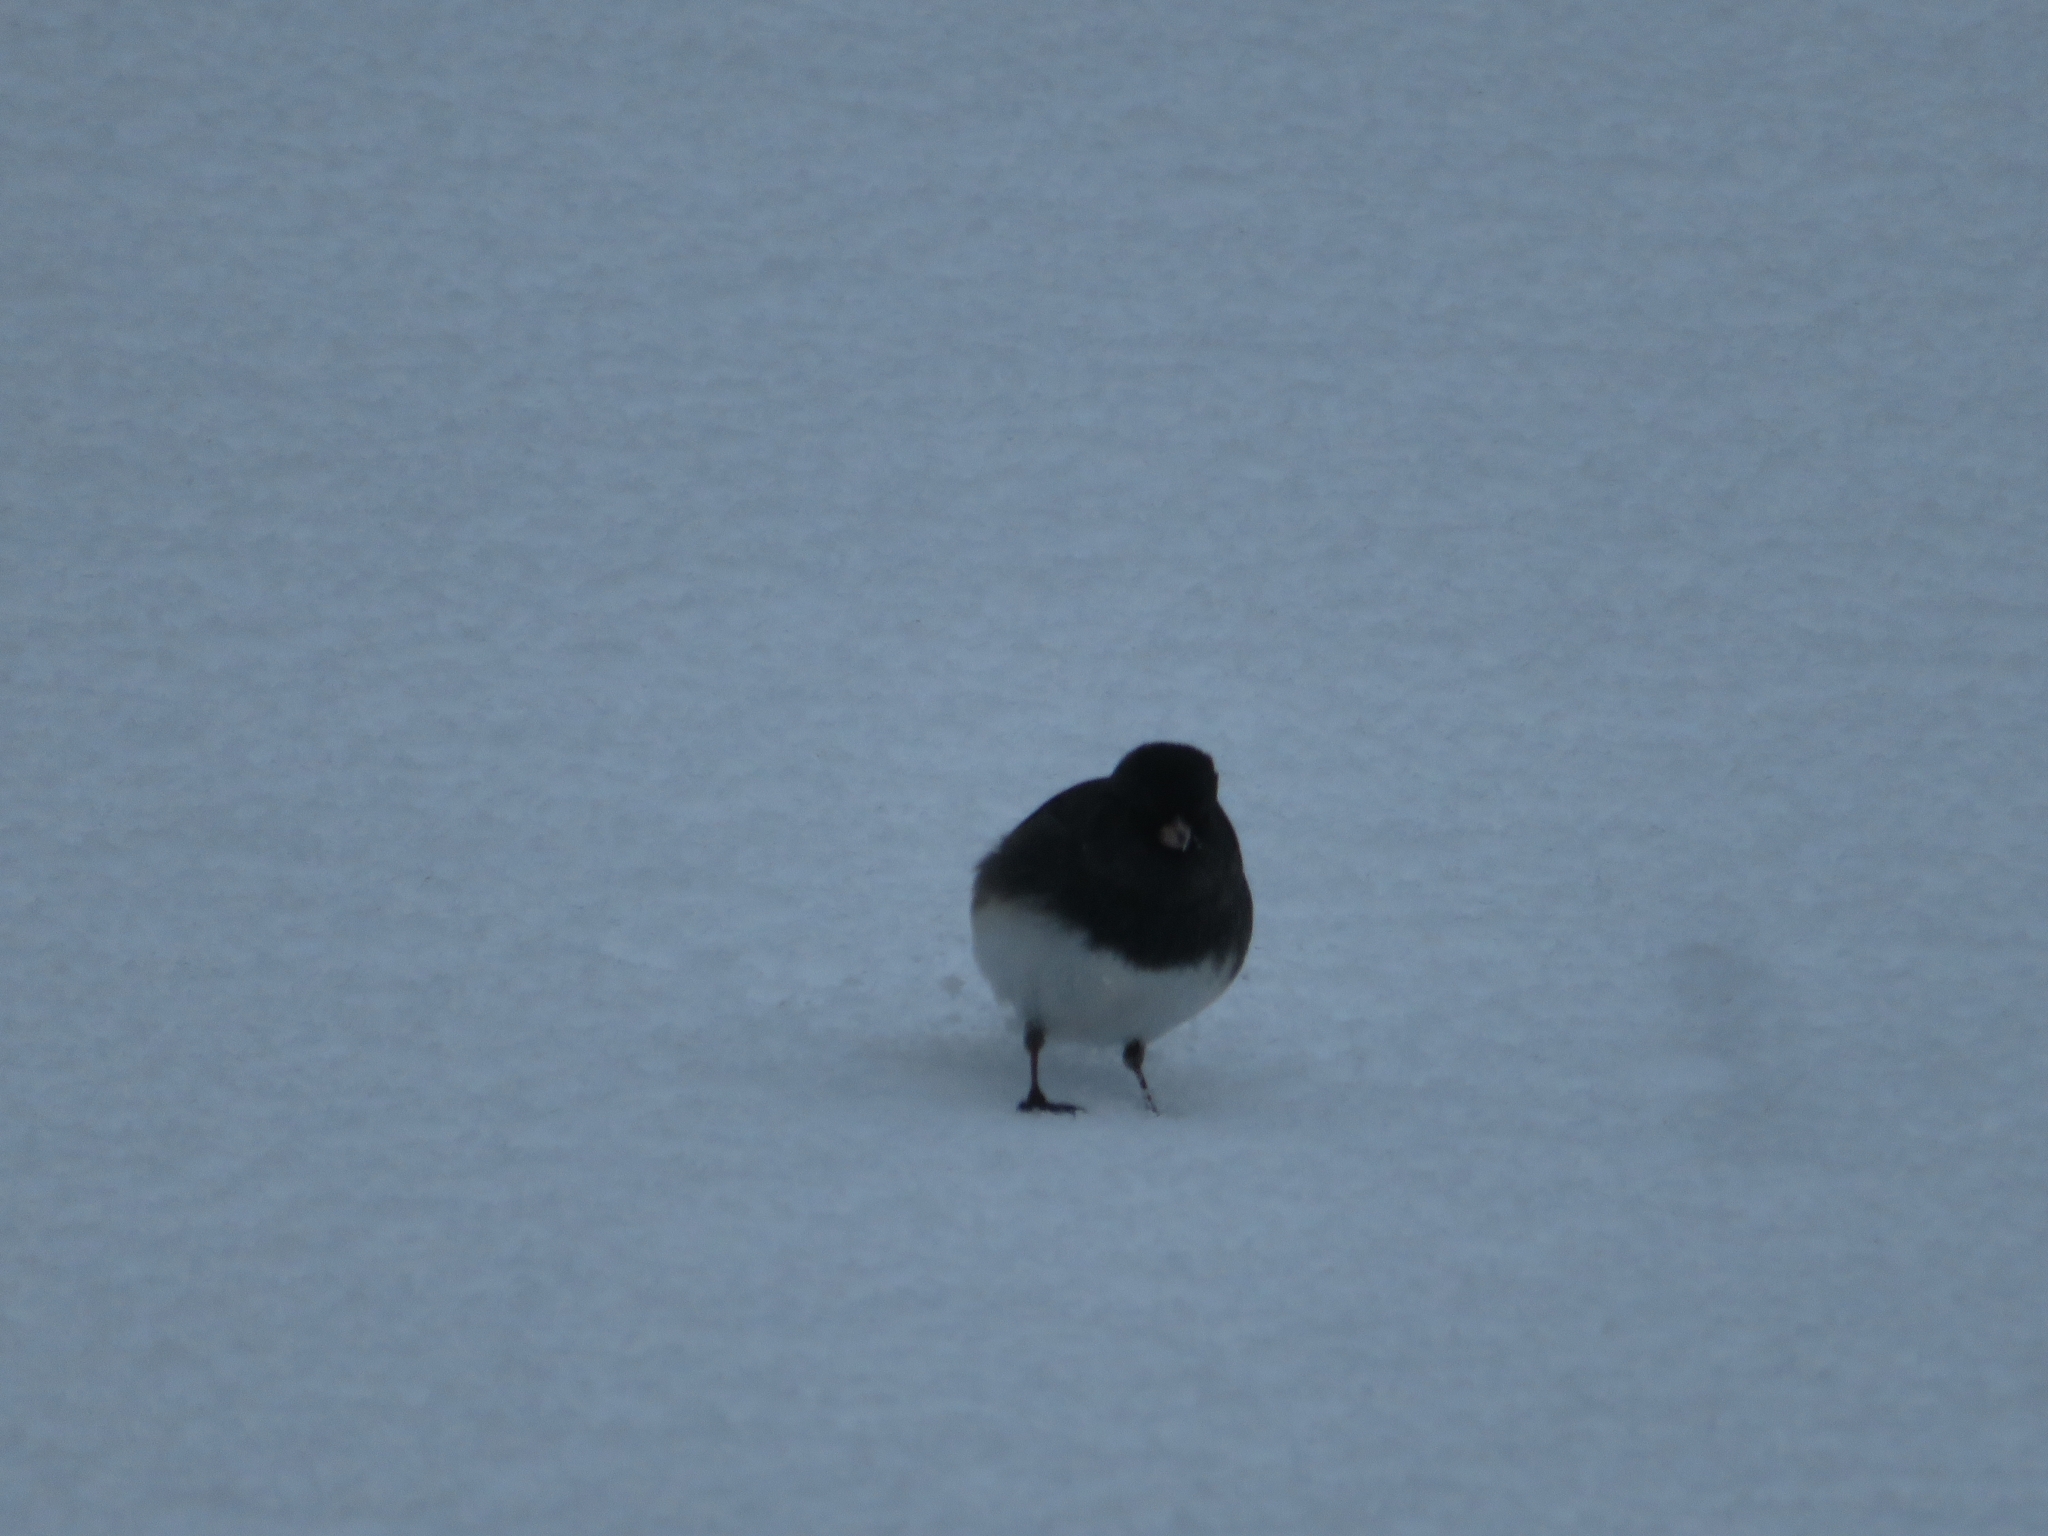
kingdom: Animalia
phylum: Chordata
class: Aves
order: Passeriformes
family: Passerellidae
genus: Junco
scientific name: Junco hyemalis
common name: Dark-eyed junco
